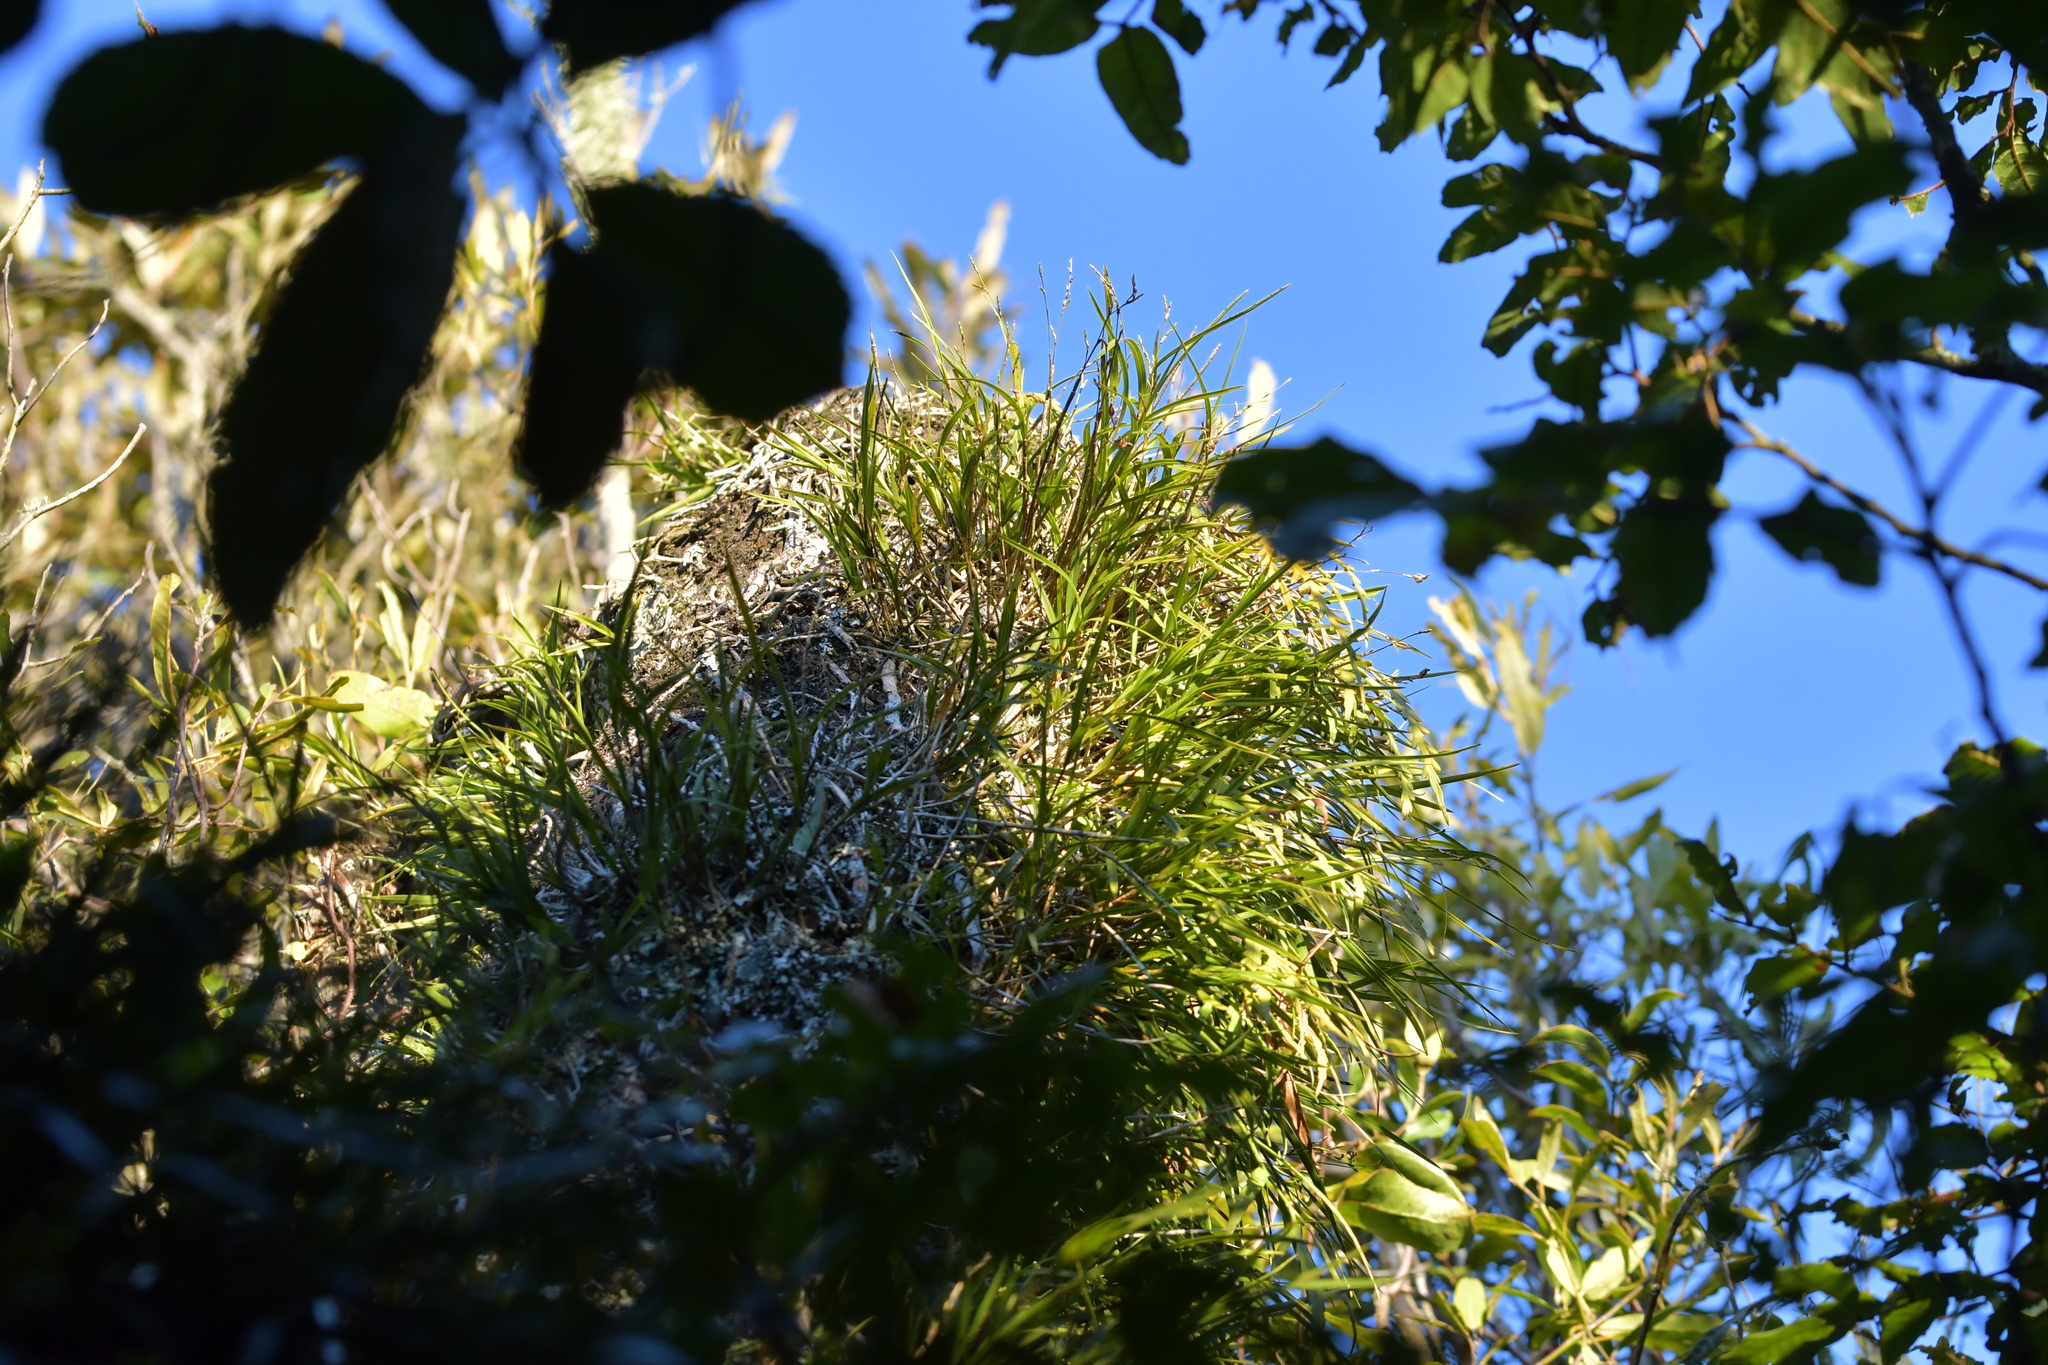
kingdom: Plantae
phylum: Tracheophyta
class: Liliopsida
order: Asparagales
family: Orchidaceae
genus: Earina
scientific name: Earina mucronata
